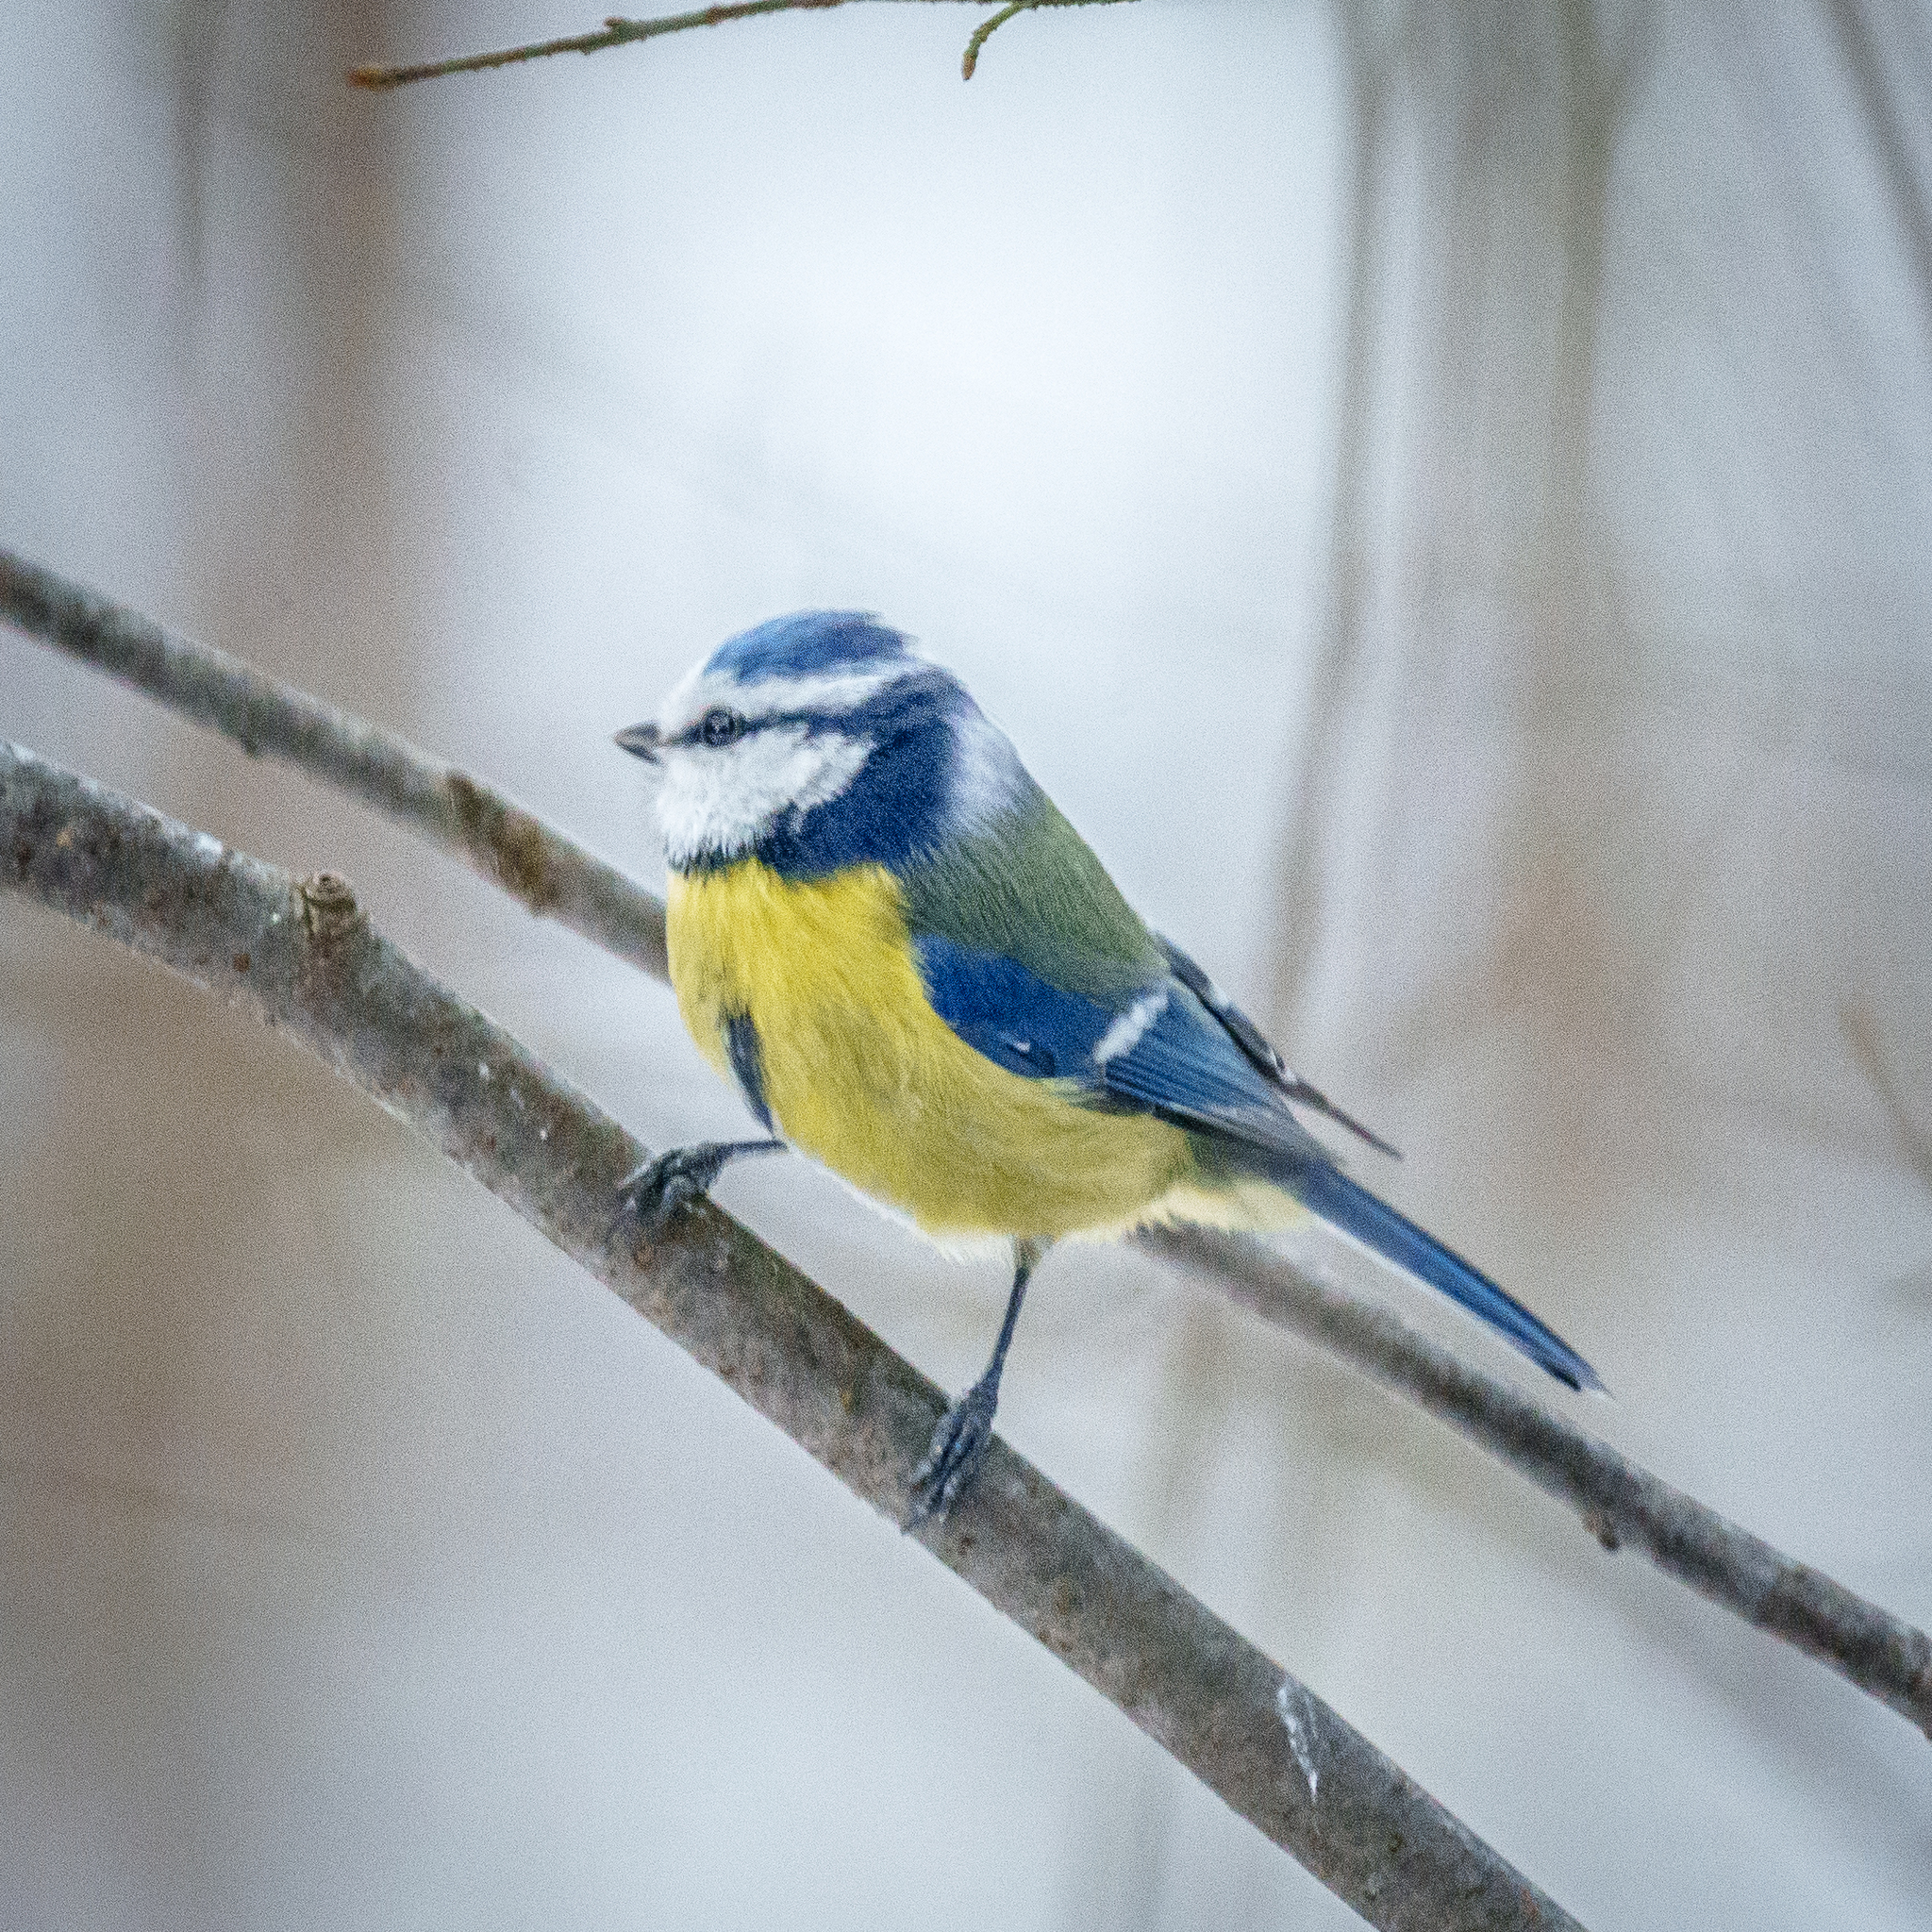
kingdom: Animalia
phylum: Chordata
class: Aves
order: Passeriformes
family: Paridae
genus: Cyanistes
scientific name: Cyanistes caeruleus
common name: Eurasian blue tit
